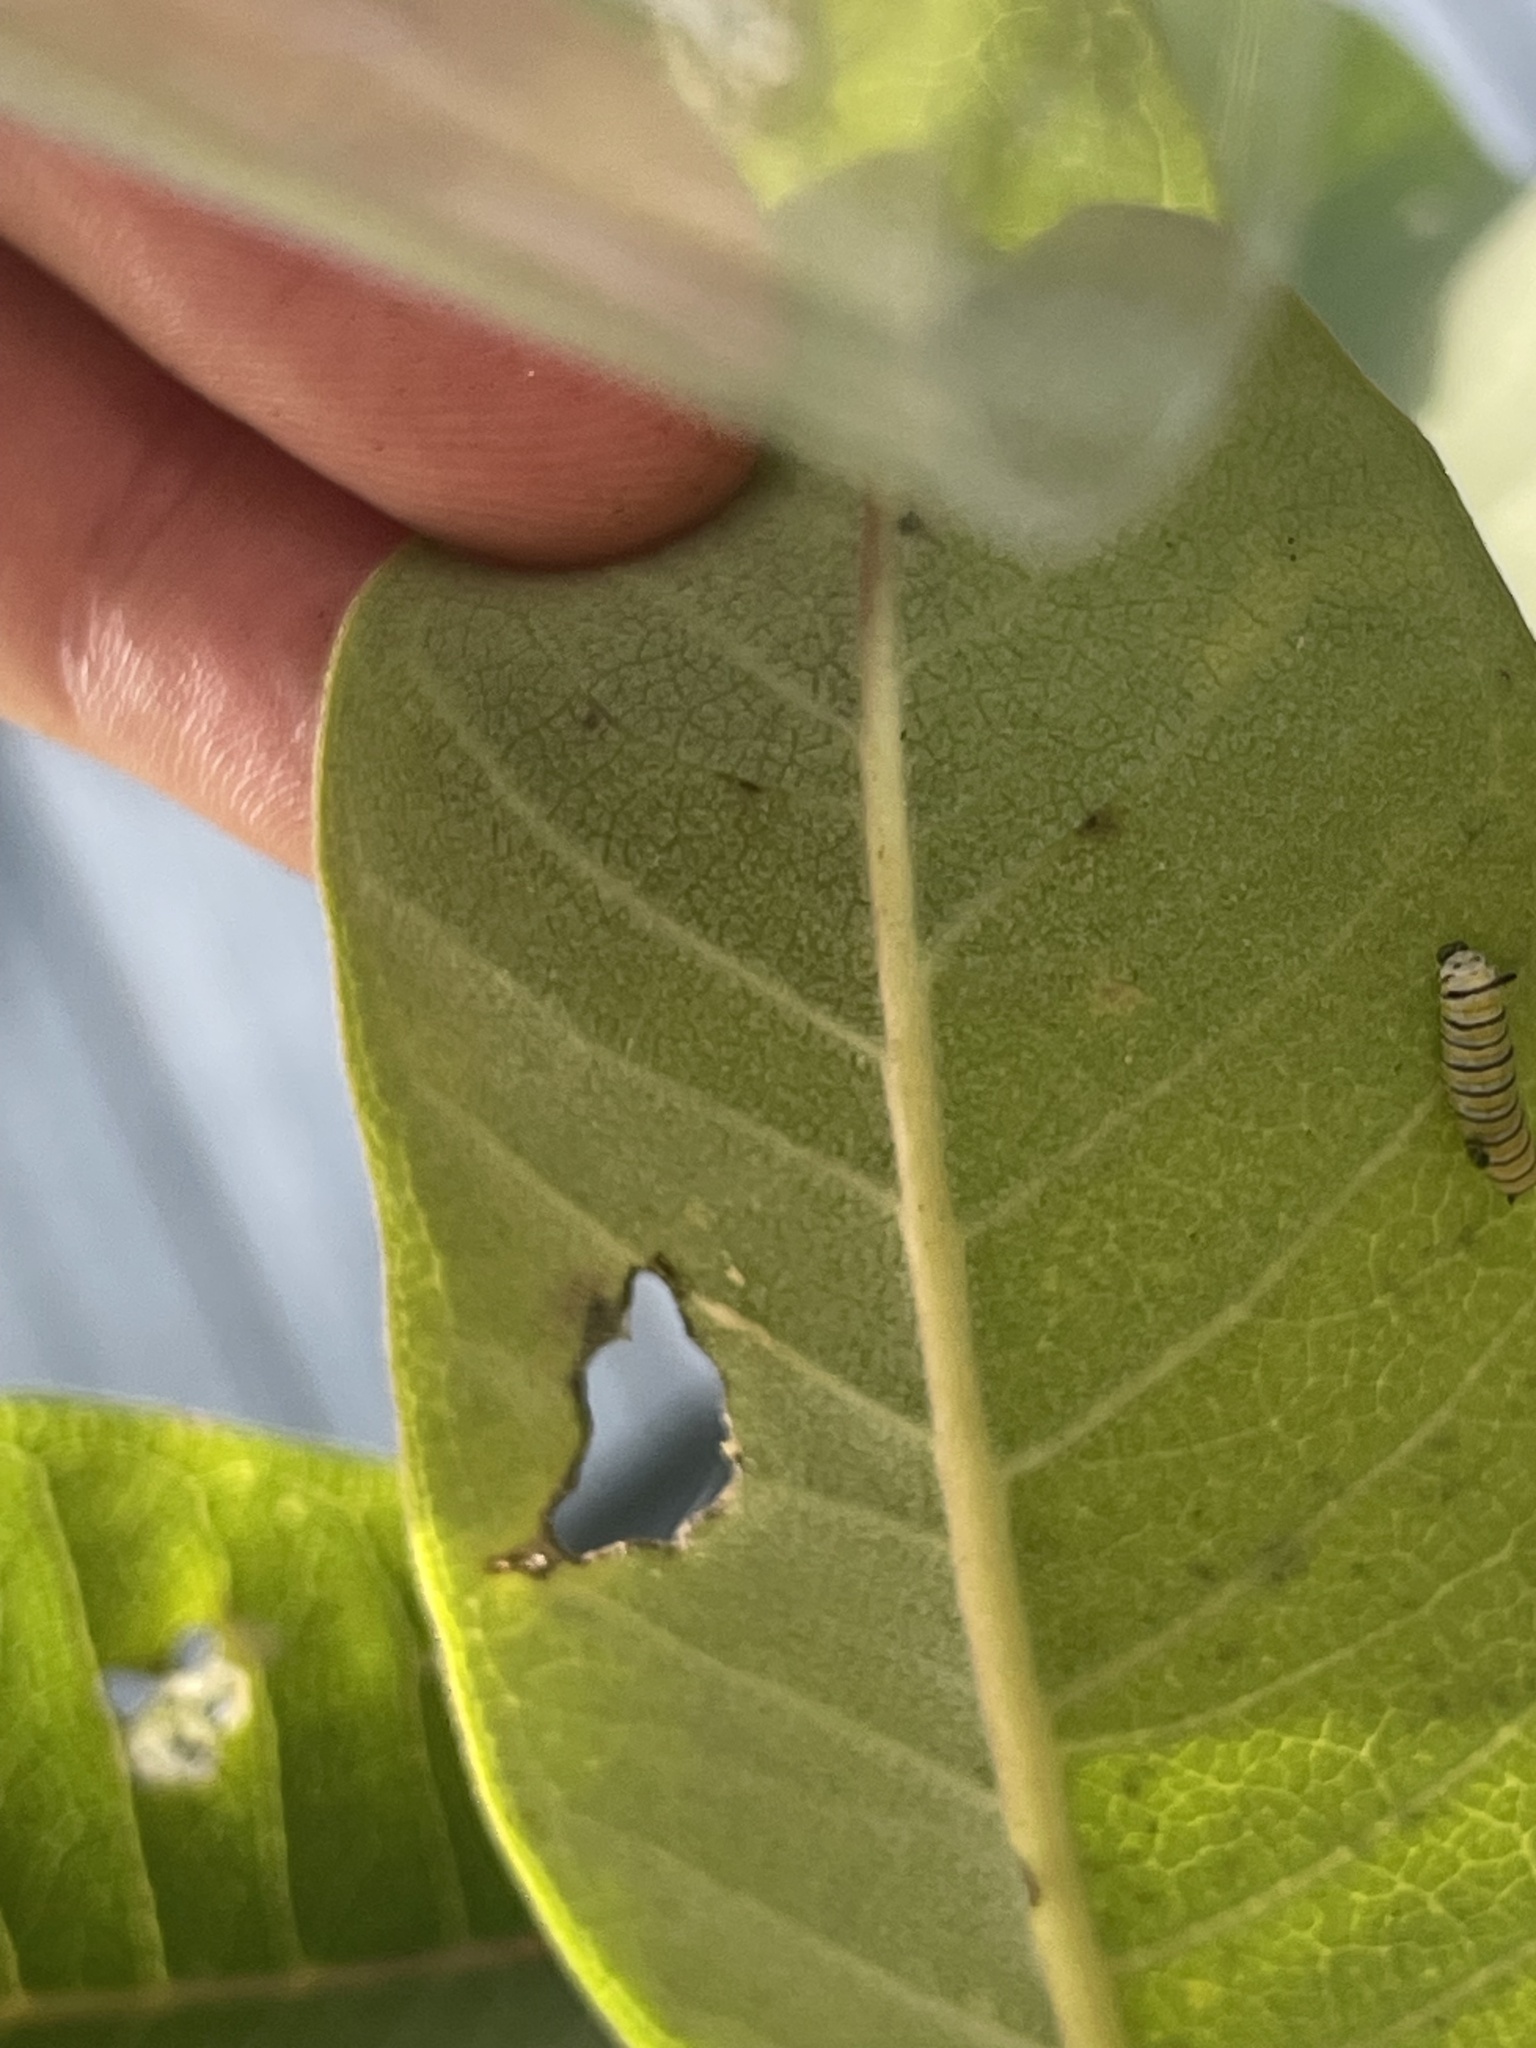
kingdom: Animalia
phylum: Arthropoda
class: Insecta
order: Lepidoptera
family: Nymphalidae
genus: Danaus
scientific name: Danaus plexippus
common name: Monarch
